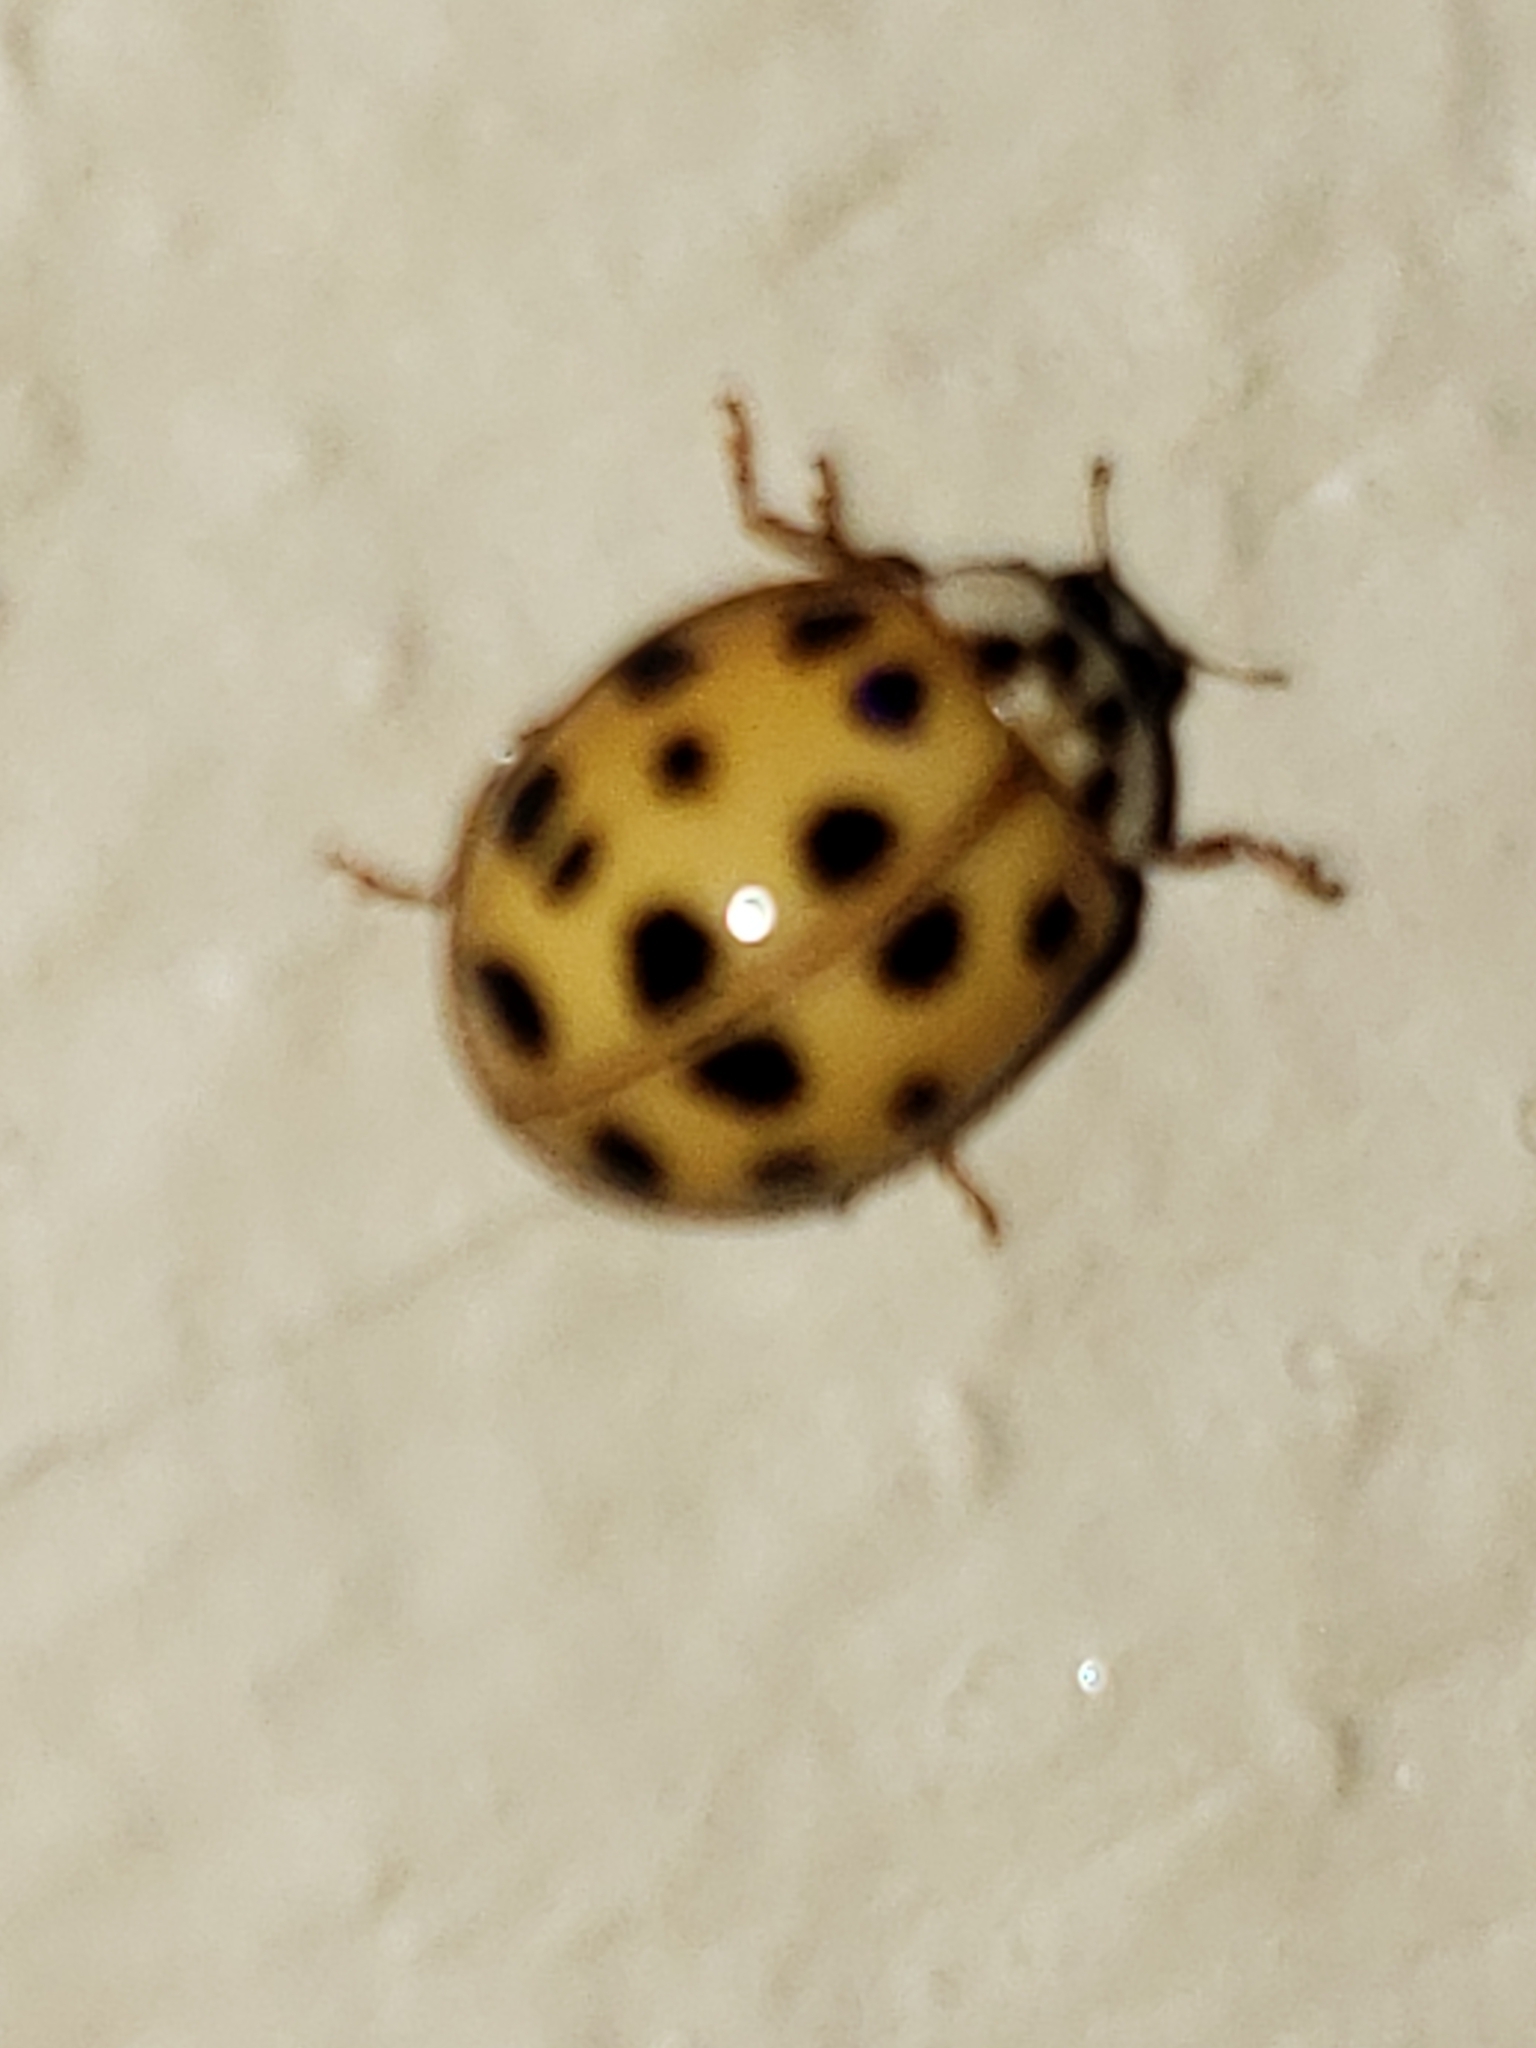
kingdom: Animalia
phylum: Arthropoda
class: Insecta
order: Coleoptera
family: Coccinellidae
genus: Harmonia
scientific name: Harmonia axyridis
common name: Harlequin ladybird
